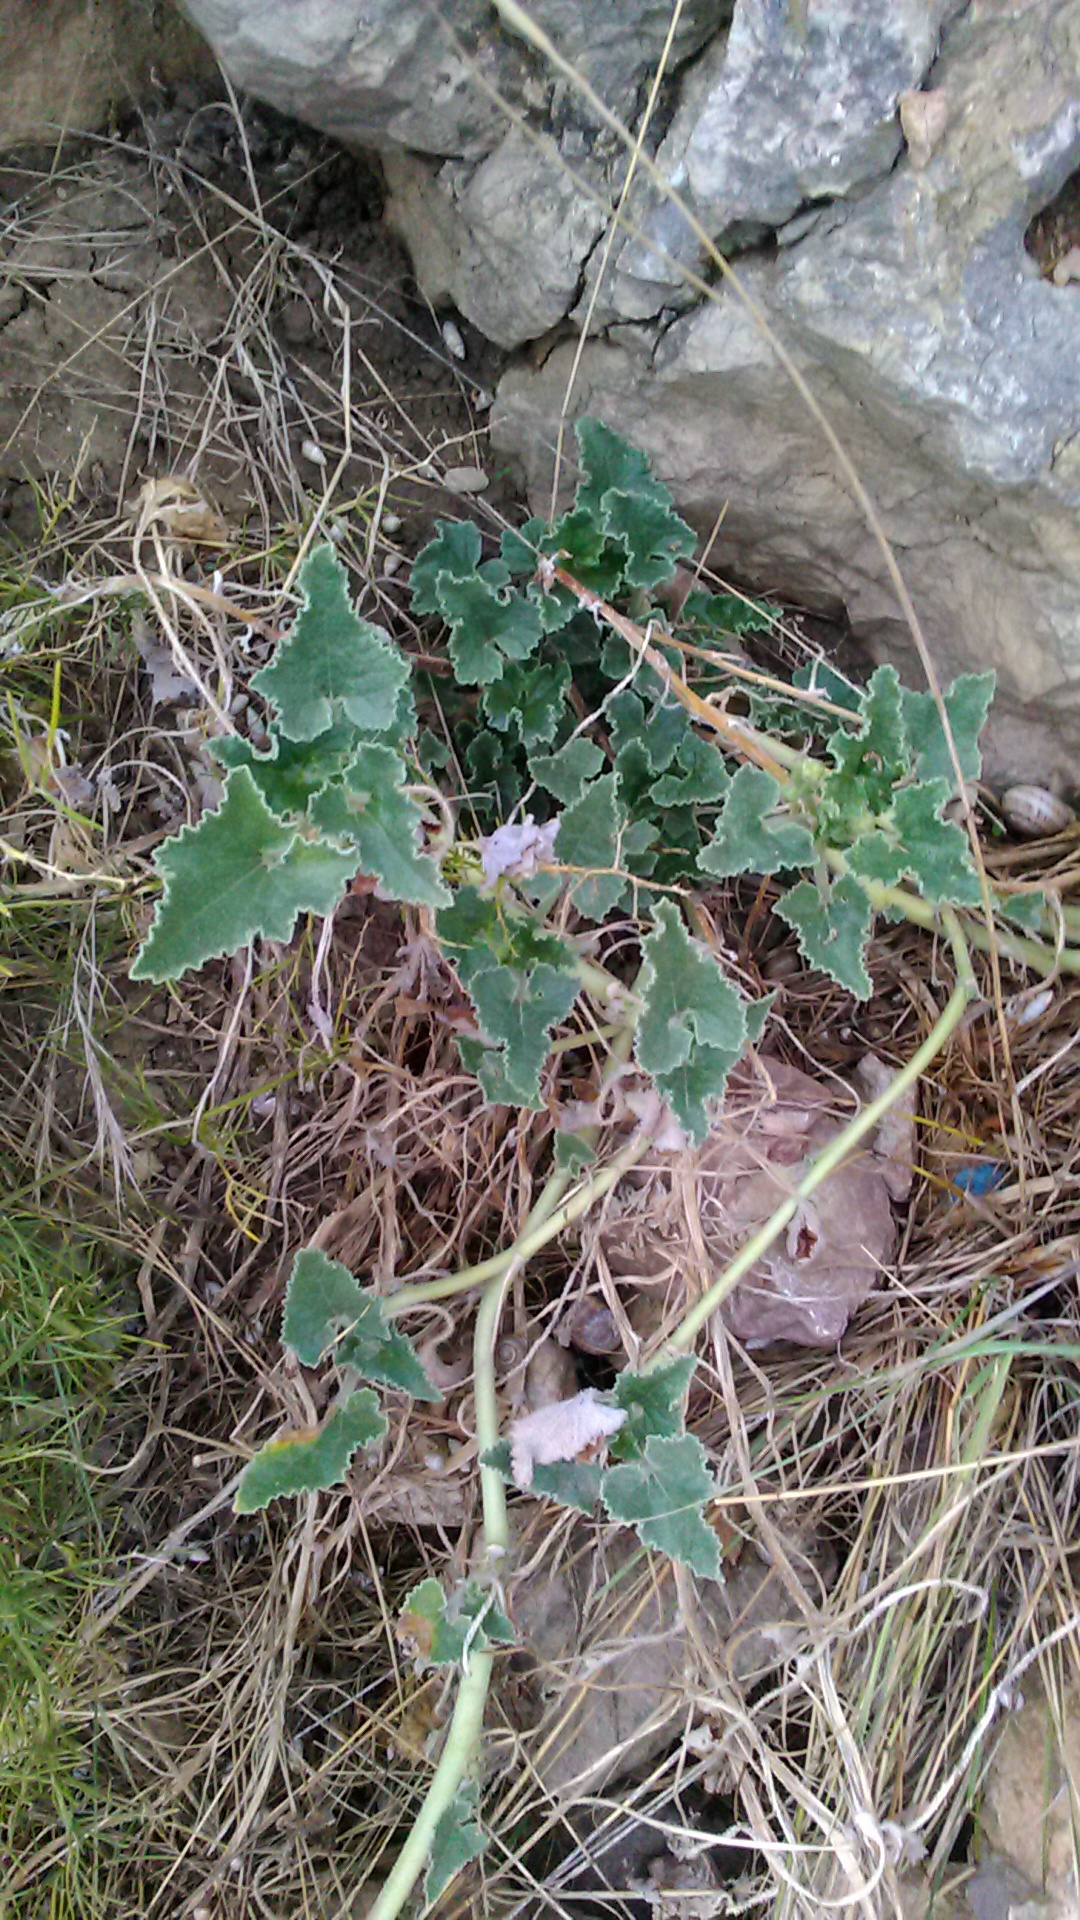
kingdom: Plantae
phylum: Tracheophyta
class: Magnoliopsida
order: Cucurbitales
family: Cucurbitaceae
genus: Ecballium
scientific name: Ecballium elaterium
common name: Squirting cucumber
